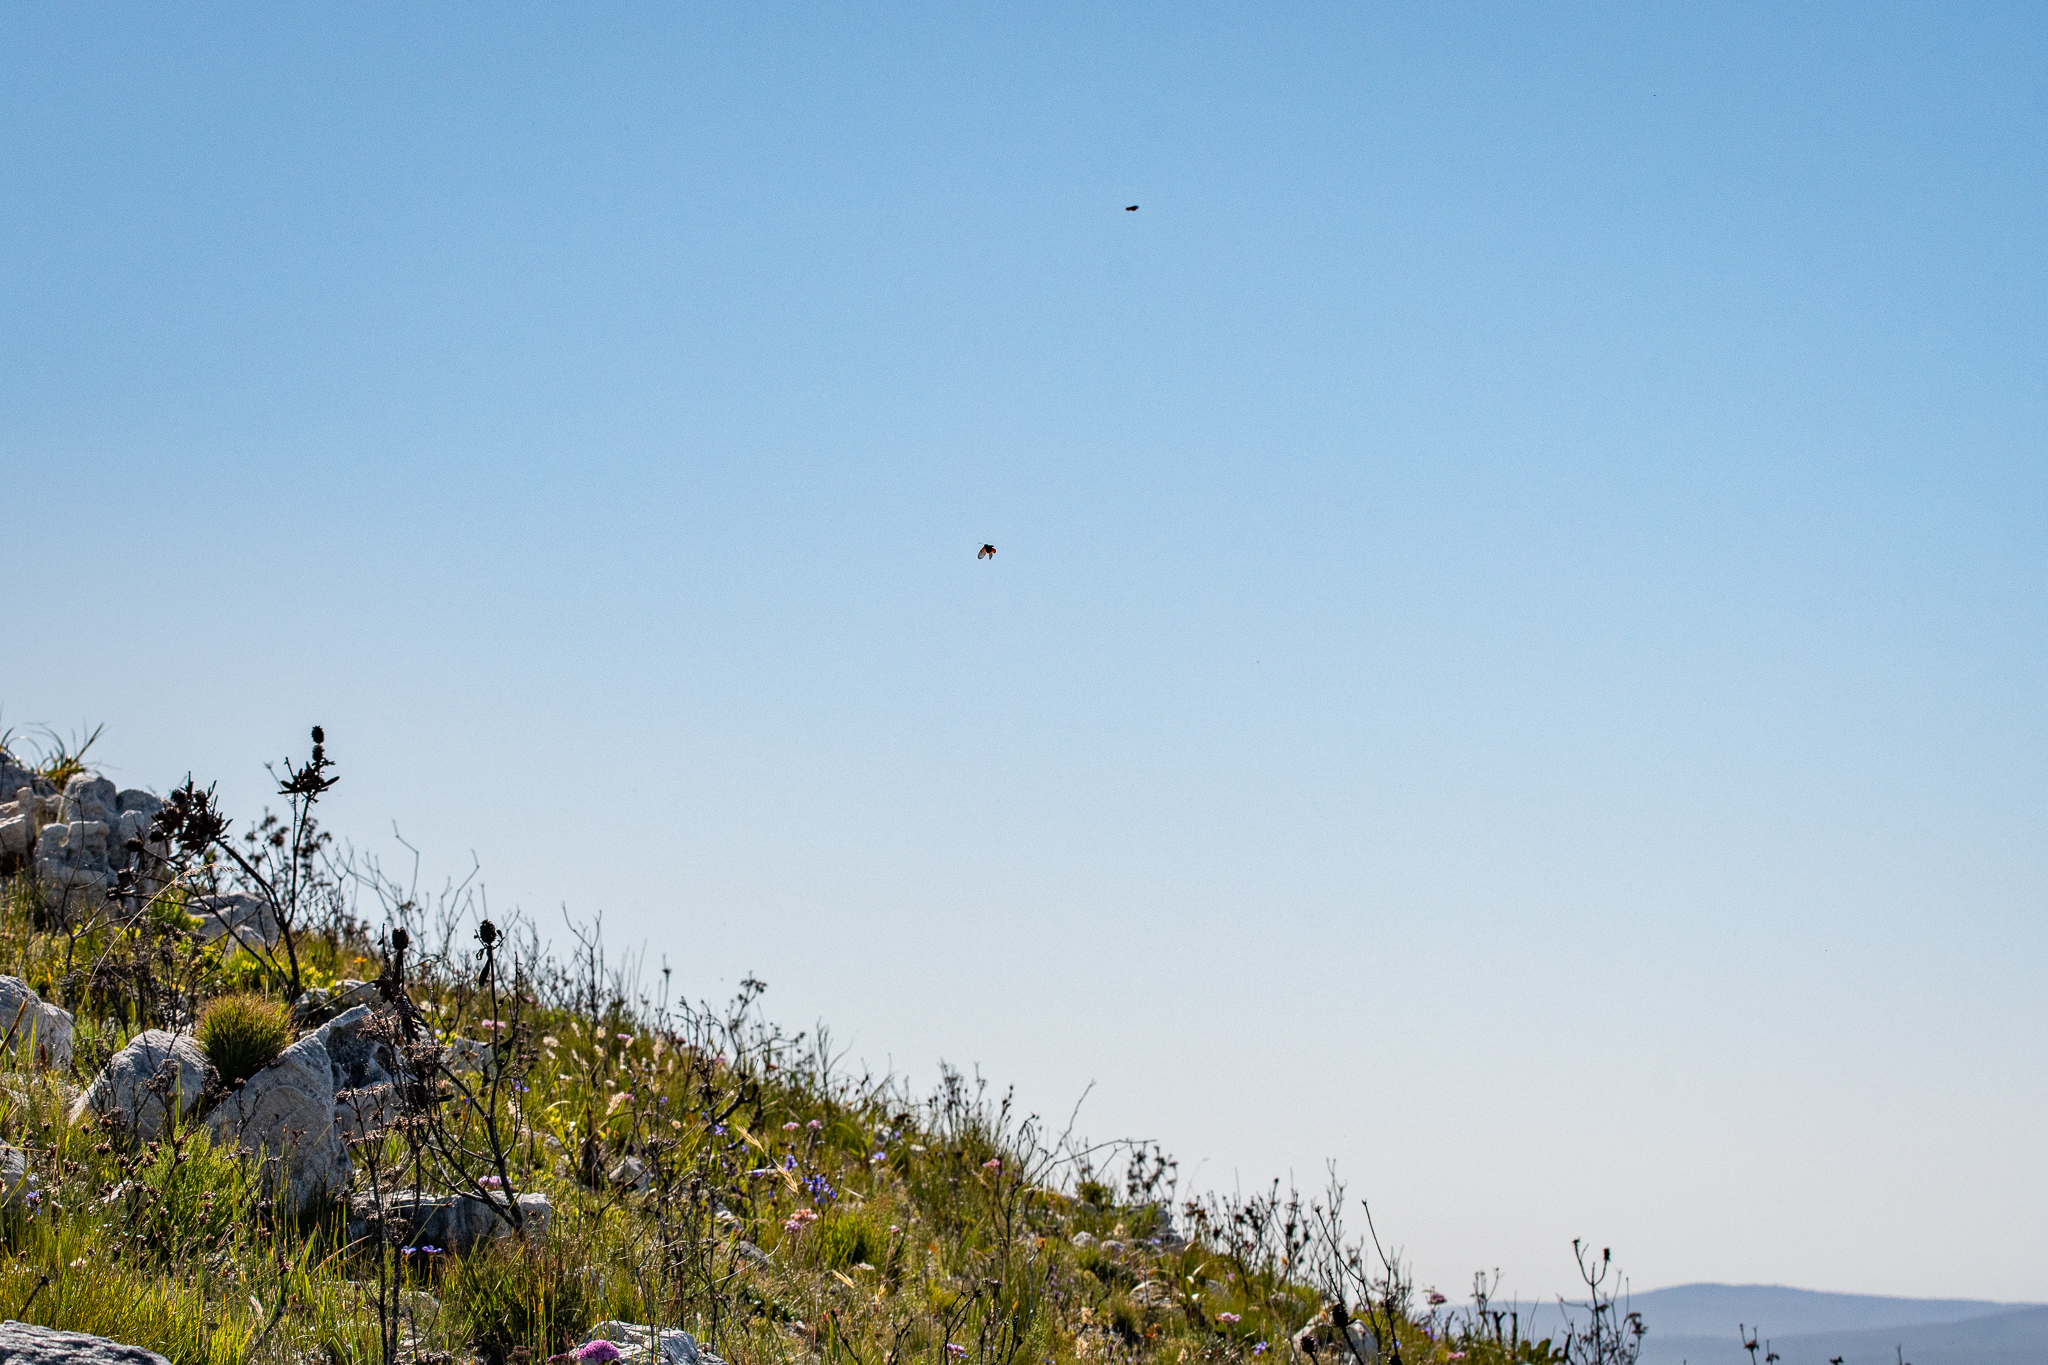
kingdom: Animalia
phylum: Arthropoda
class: Insecta
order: Lepidoptera
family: Nymphalidae
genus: Acraea
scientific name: Acraea horta
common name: Garden acraea
